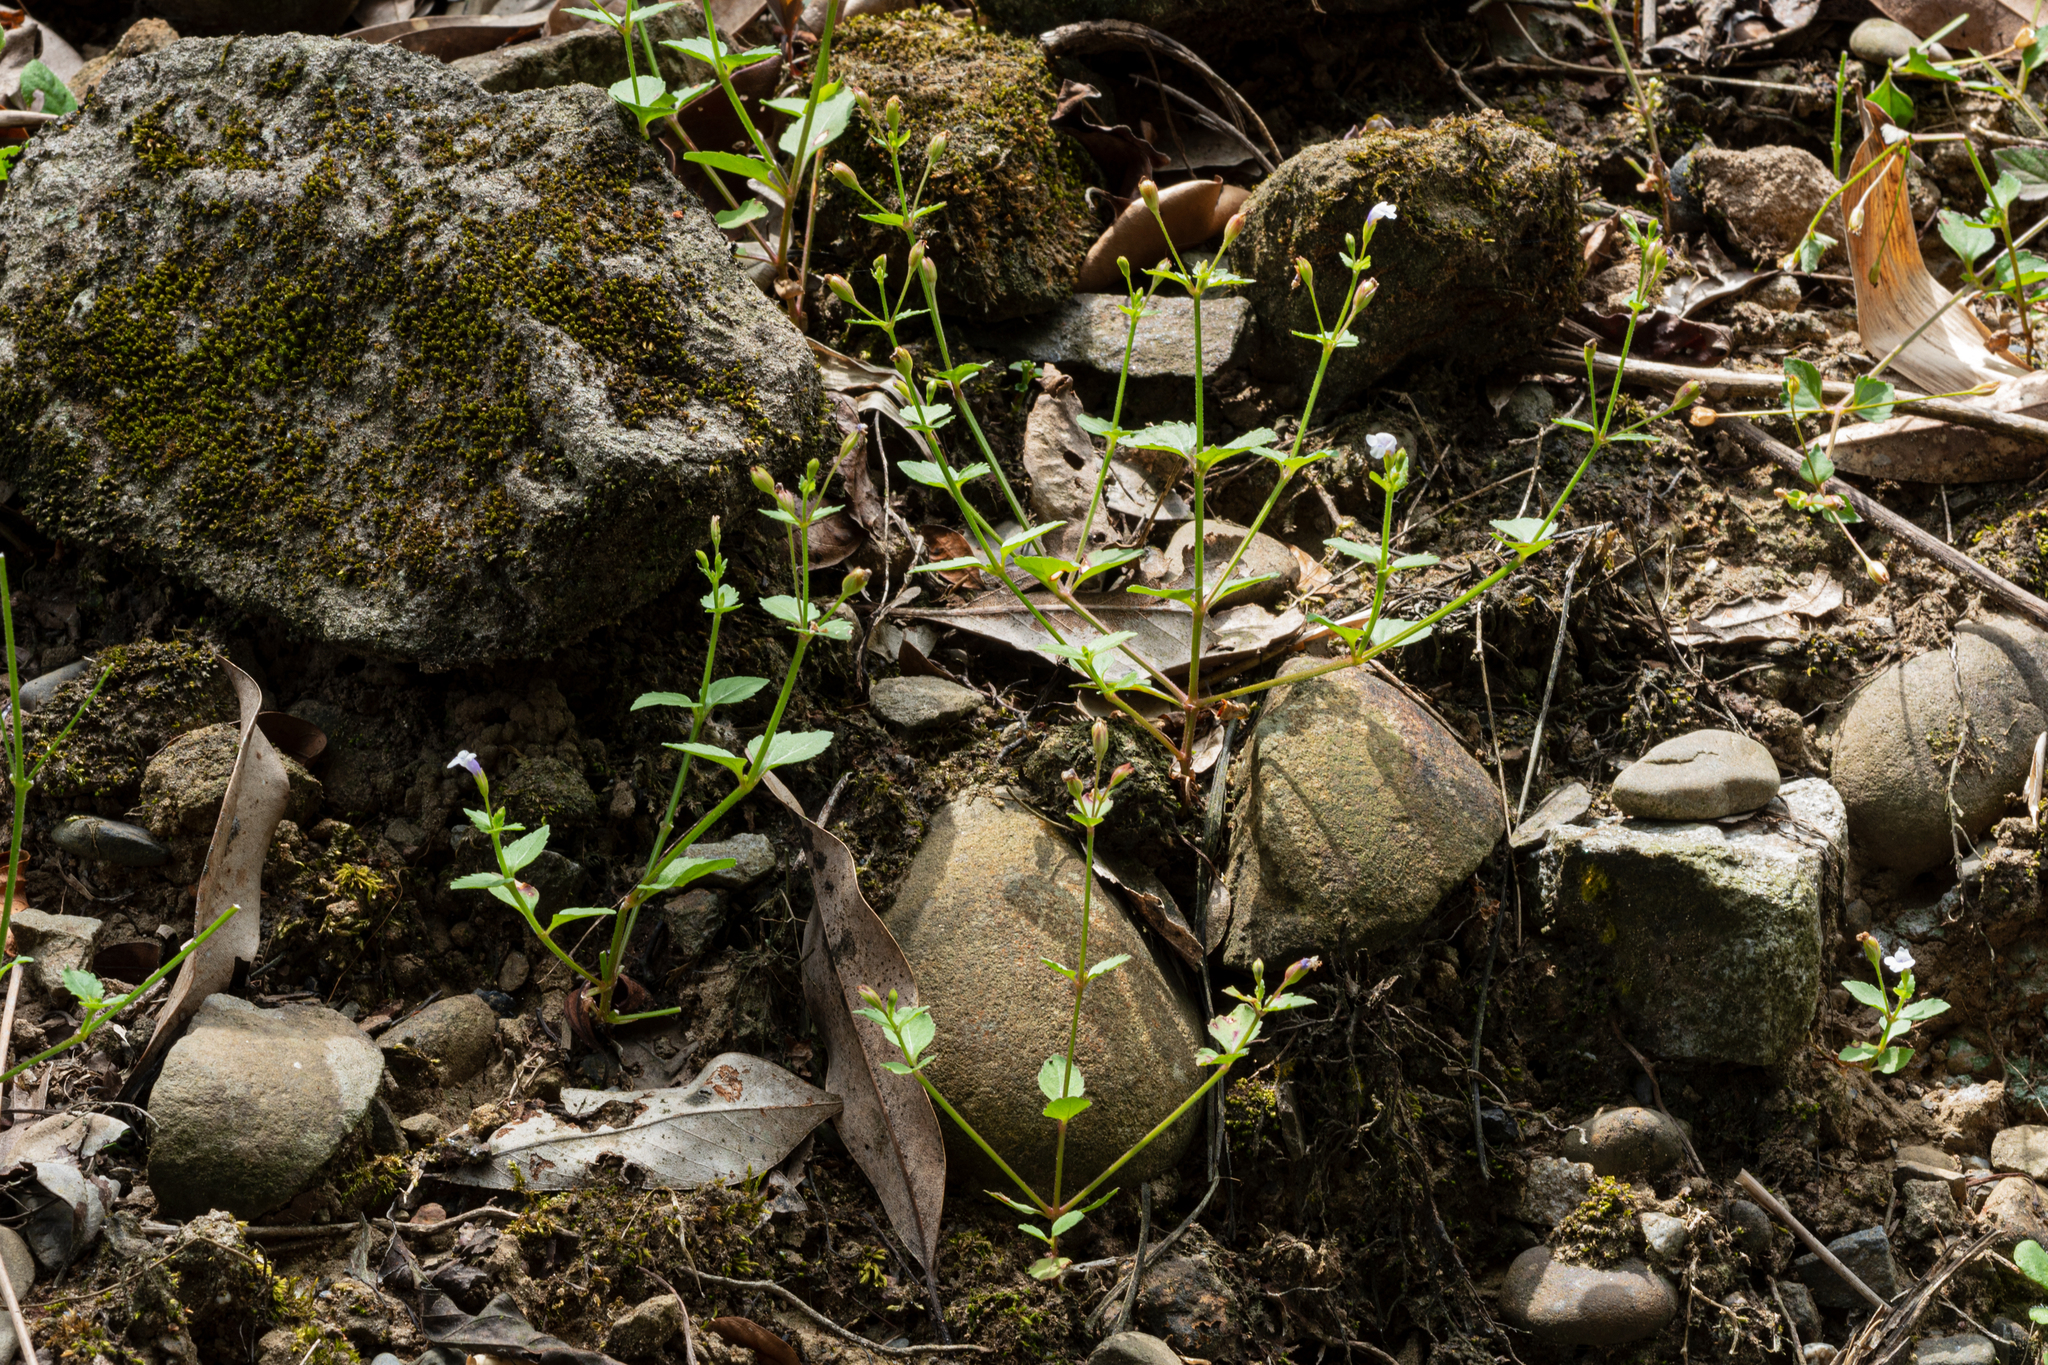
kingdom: Plantae
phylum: Tracheophyta
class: Magnoliopsida
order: Lamiales
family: Linderniaceae
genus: Torenia
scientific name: Torenia crustacea
